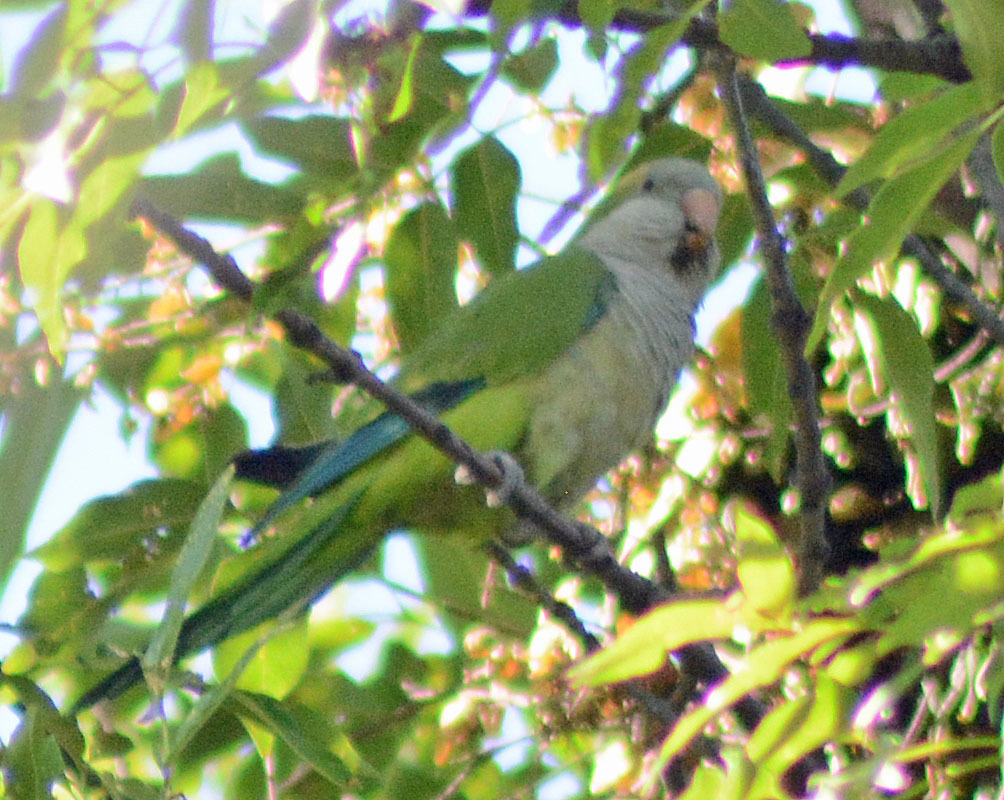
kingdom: Animalia
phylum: Chordata
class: Aves
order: Psittaciformes
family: Psittacidae
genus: Myiopsitta
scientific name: Myiopsitta monachus
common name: Monk parakeet
